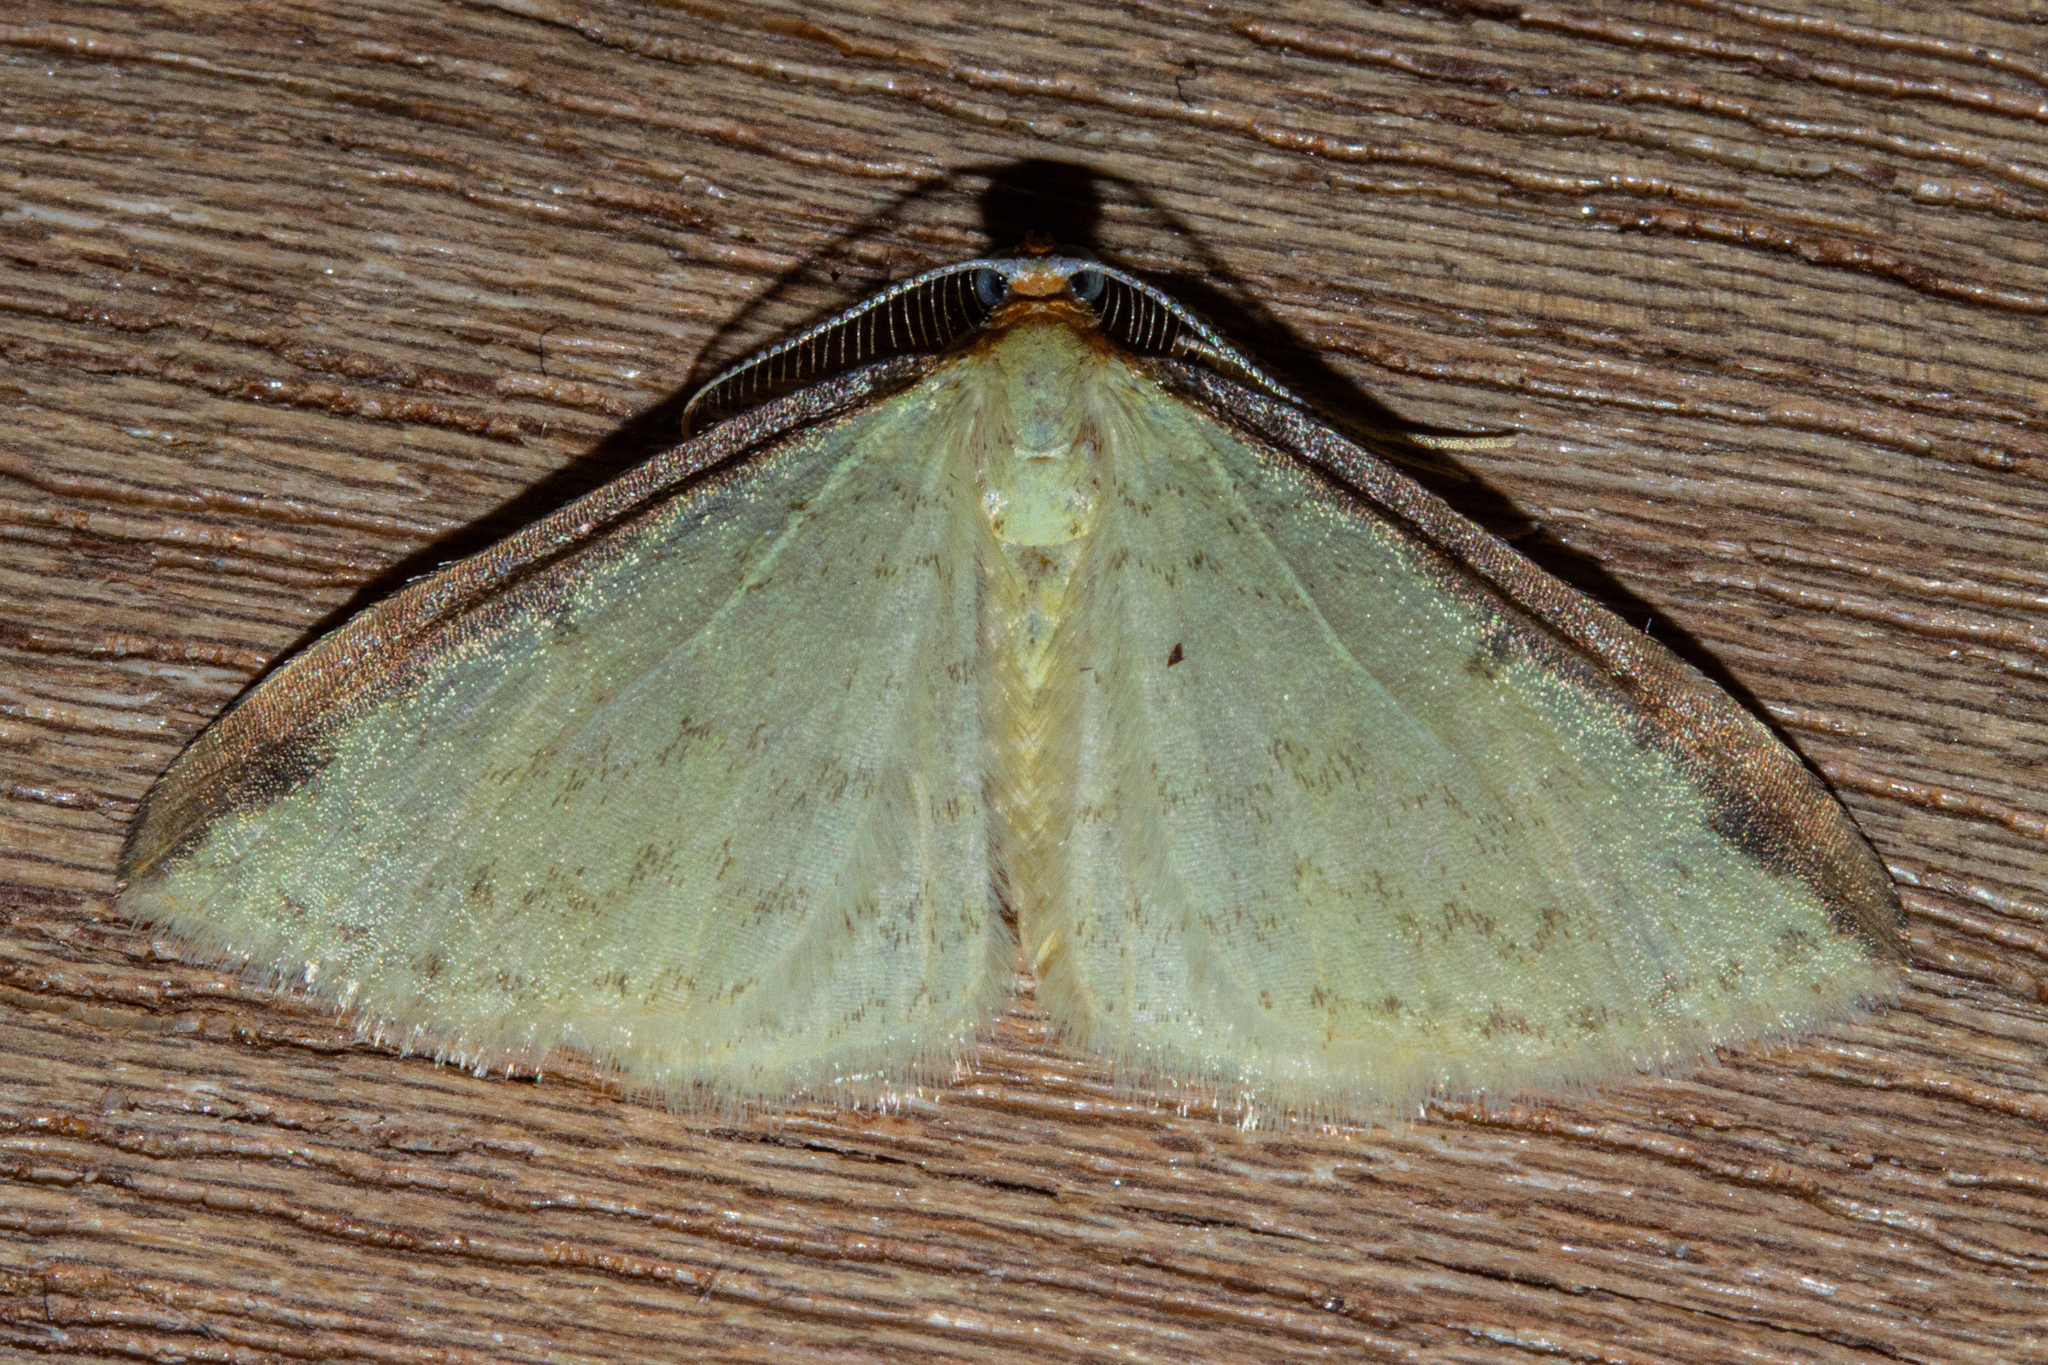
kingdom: Animalia
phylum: Arthropoda
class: Insecta
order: Lepidoptera
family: Geometridae
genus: Epiphryne
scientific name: Epiphryne undosata
